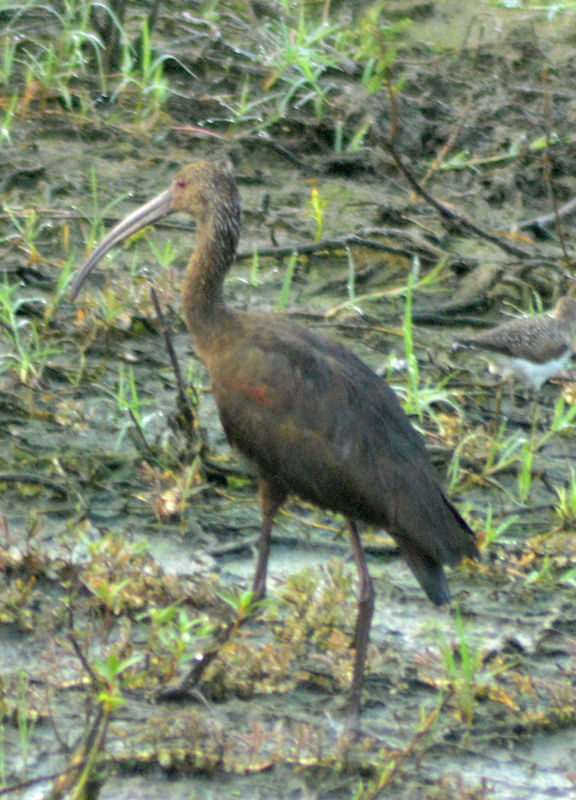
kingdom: Animalia
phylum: Chordata
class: Aves
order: Pelecaniformes
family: Threskiornithidae
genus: Plegadis
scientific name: Plegadis chihi
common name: White-faced ibis
